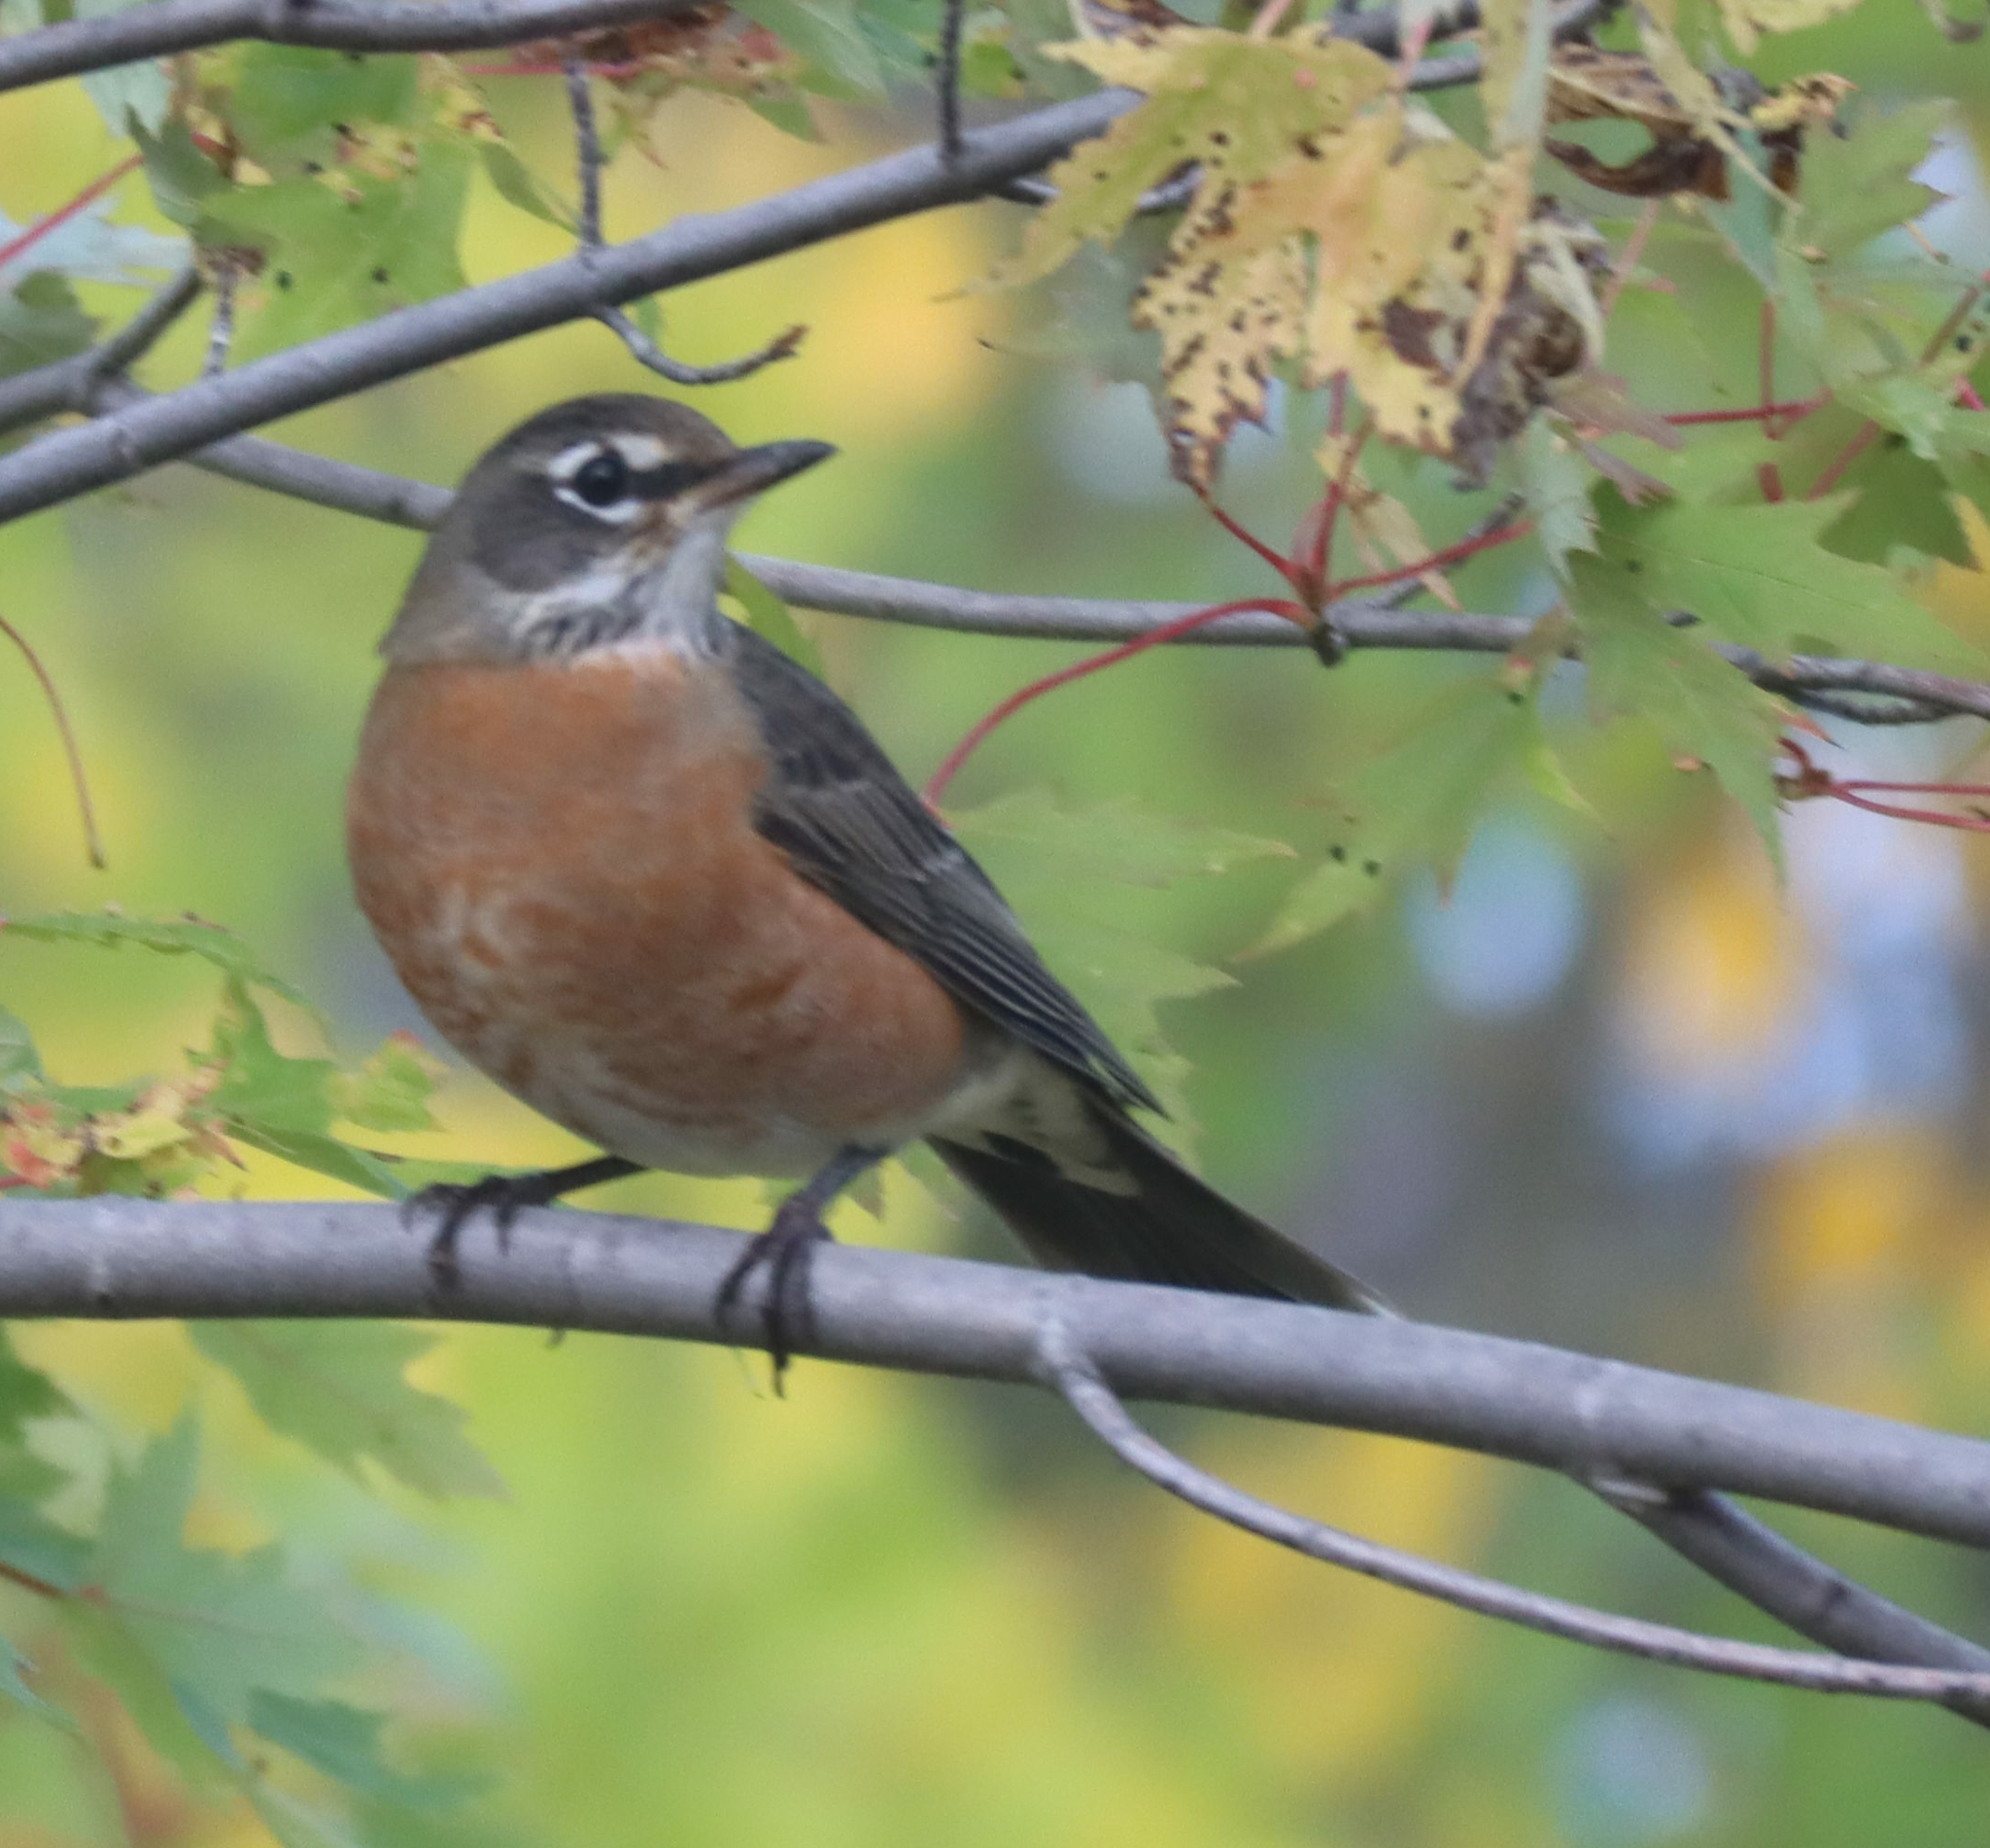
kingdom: Animalia
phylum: Chordata
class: Aves
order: Passeriformes
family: Turdidae
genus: Turdus
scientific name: Turdus migratorius
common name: American robin
